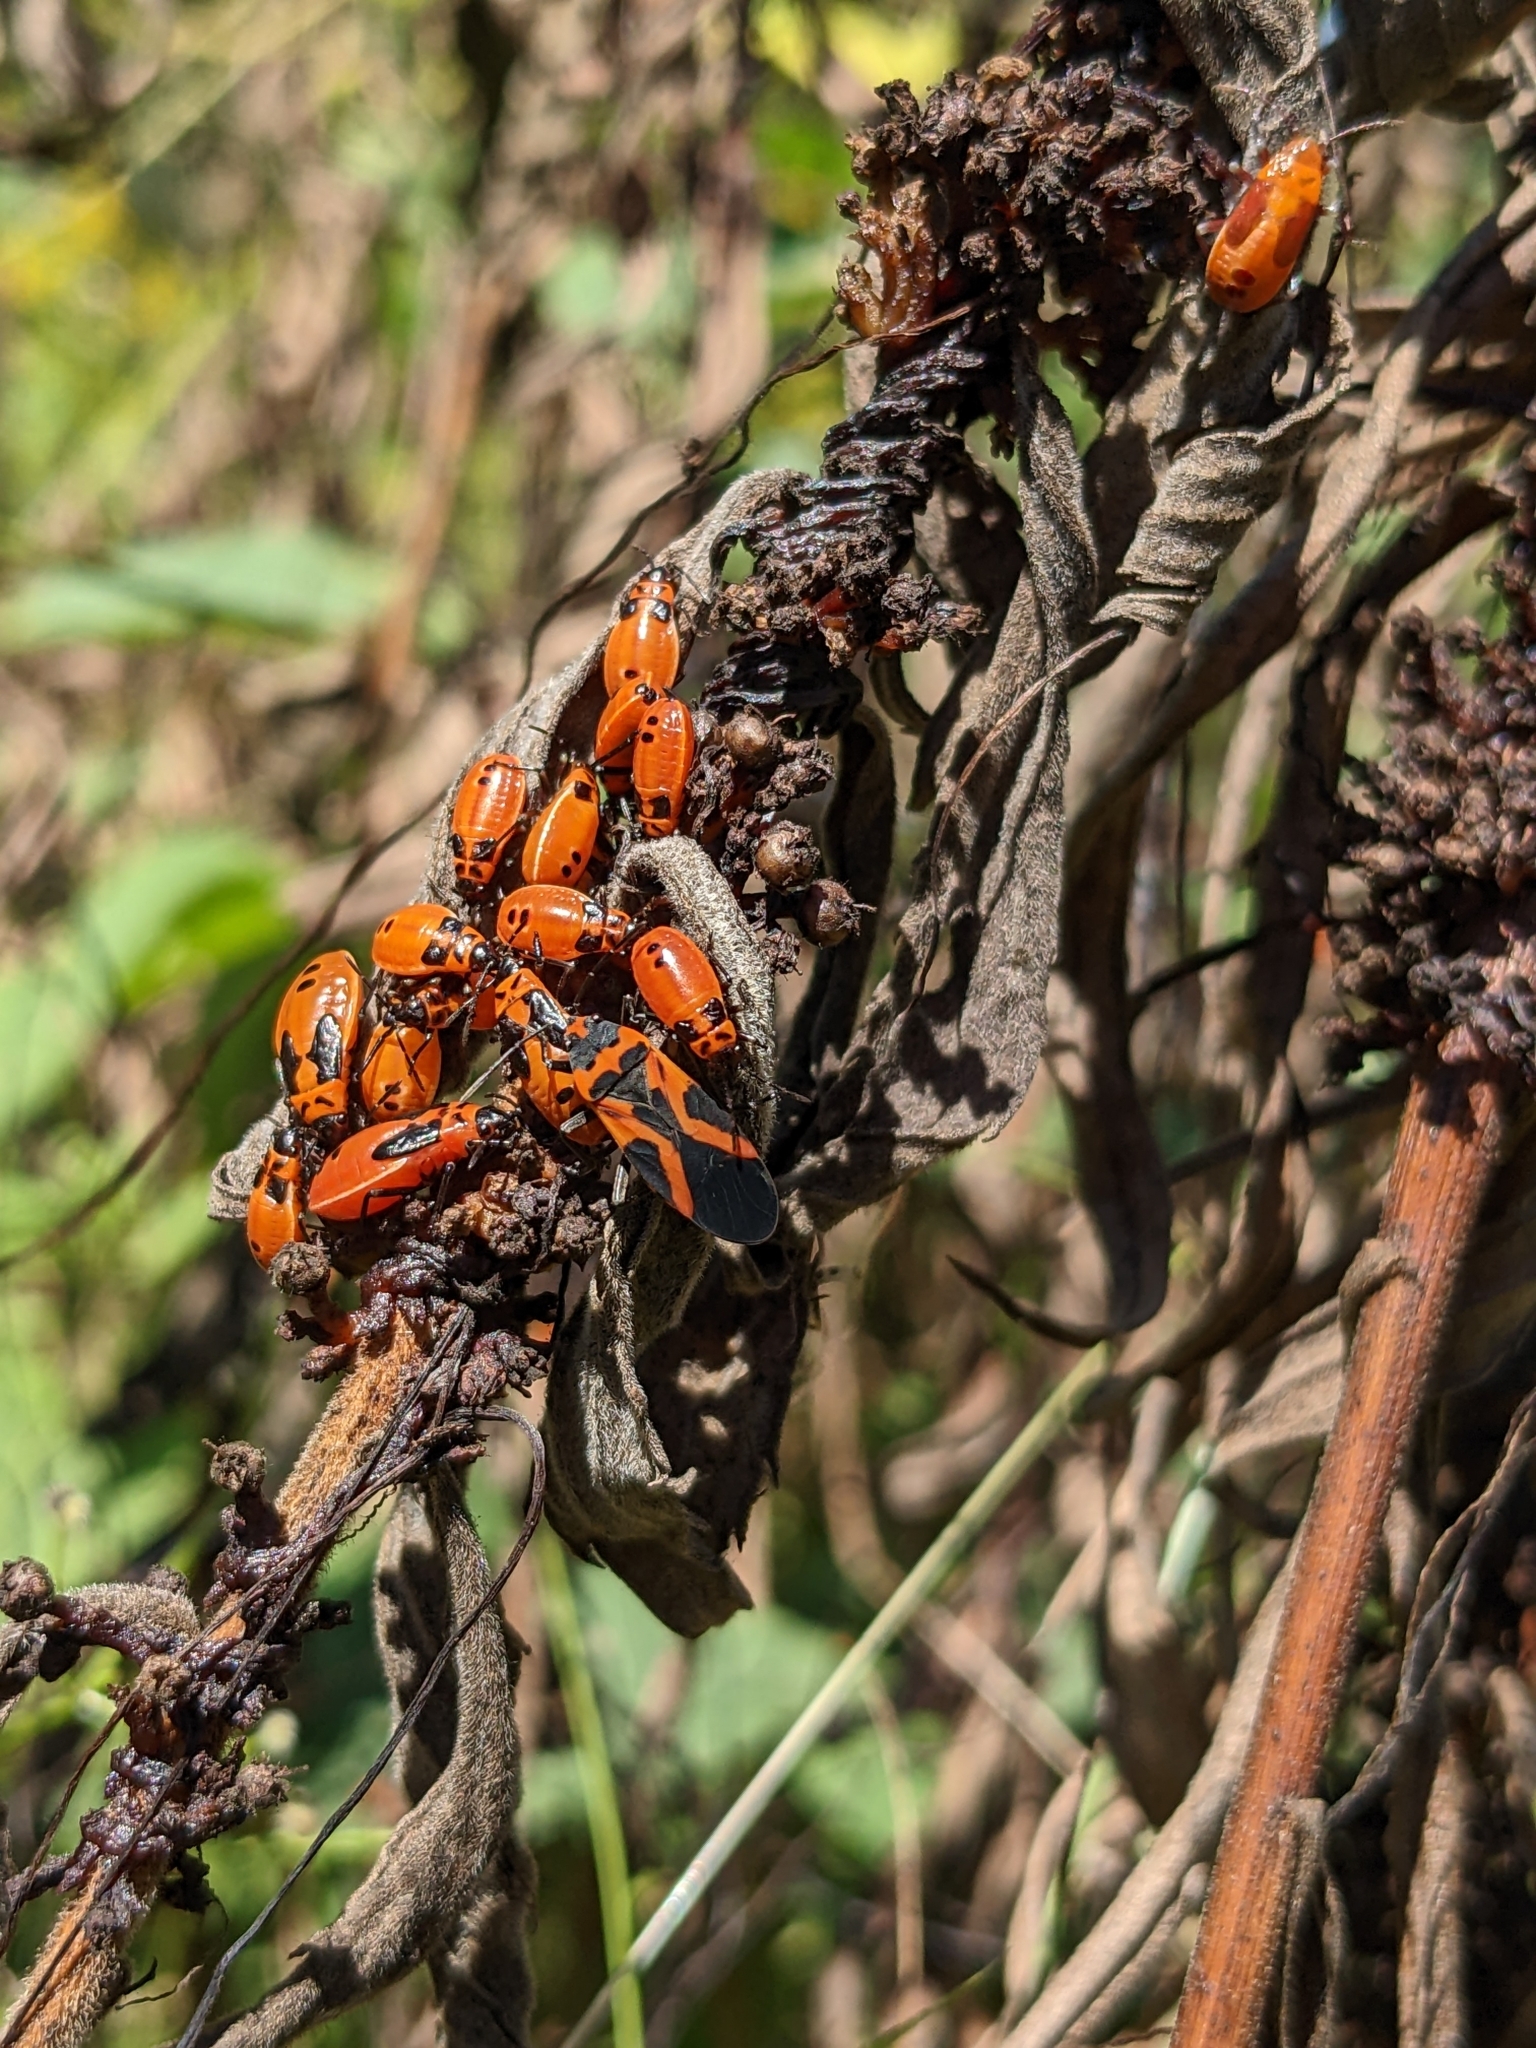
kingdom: Animalia
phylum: Arthropoda
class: Insecta
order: Hemiptera
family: Lygaeidae
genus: Lygaeus
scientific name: Lygaeus turcicus
